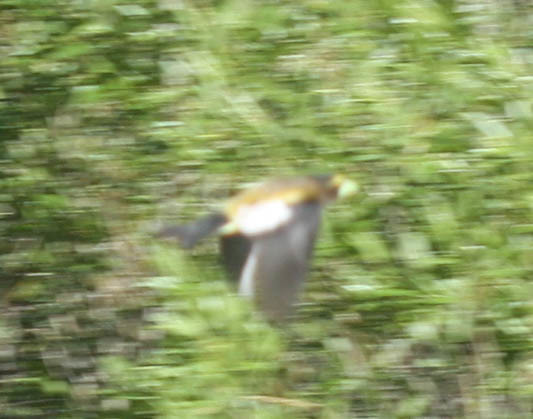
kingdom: Animalia
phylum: Chordata
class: Aves
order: Passeriformes
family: Fringillidae
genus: Hesperiphona
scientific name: Hesperiphona vespertina
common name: Evening grosbeak
